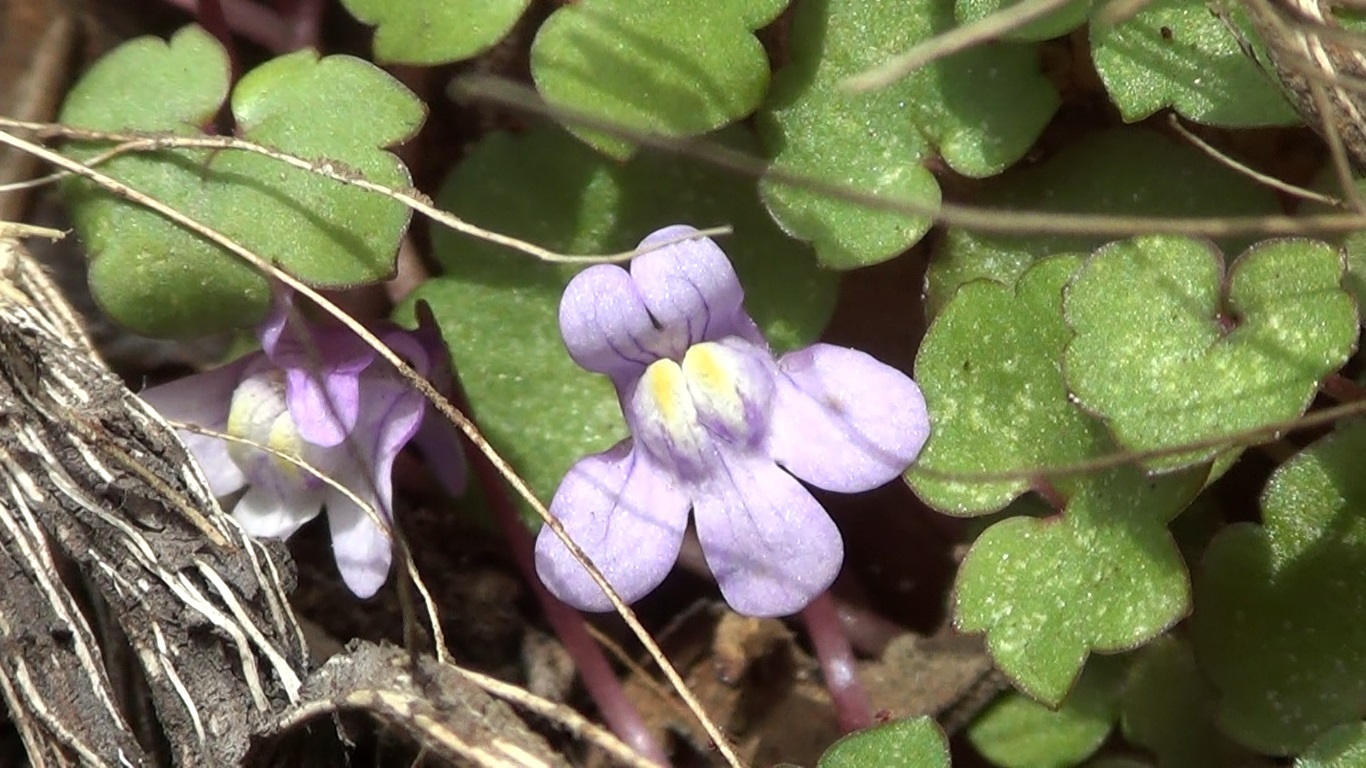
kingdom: Plantae
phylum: Tracheophyta
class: Magnoliopsida
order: Lamiales
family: Plantaginaceae
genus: Cymbalaria
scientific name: Cymbalaria muralis
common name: Ivy-leaved toadflax
